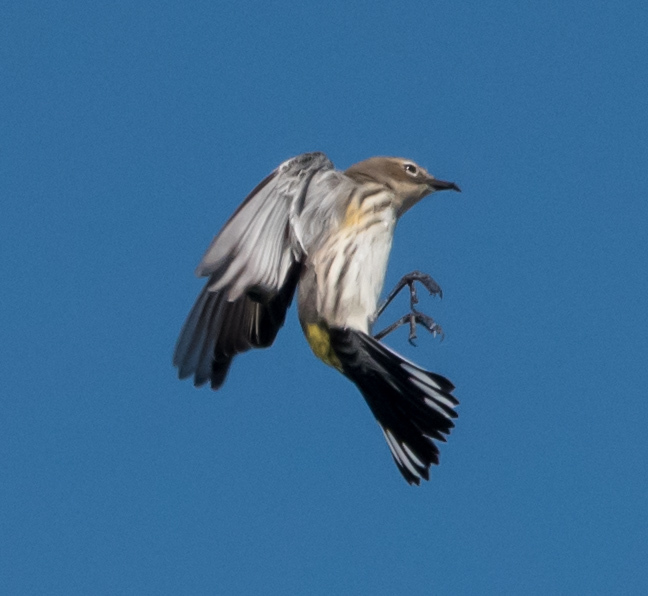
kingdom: Animalia
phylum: Chordata
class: Aves
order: Passeriformes
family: Parulidae
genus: Setophaga
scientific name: Setophaga coronata
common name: Myrtle warbler
